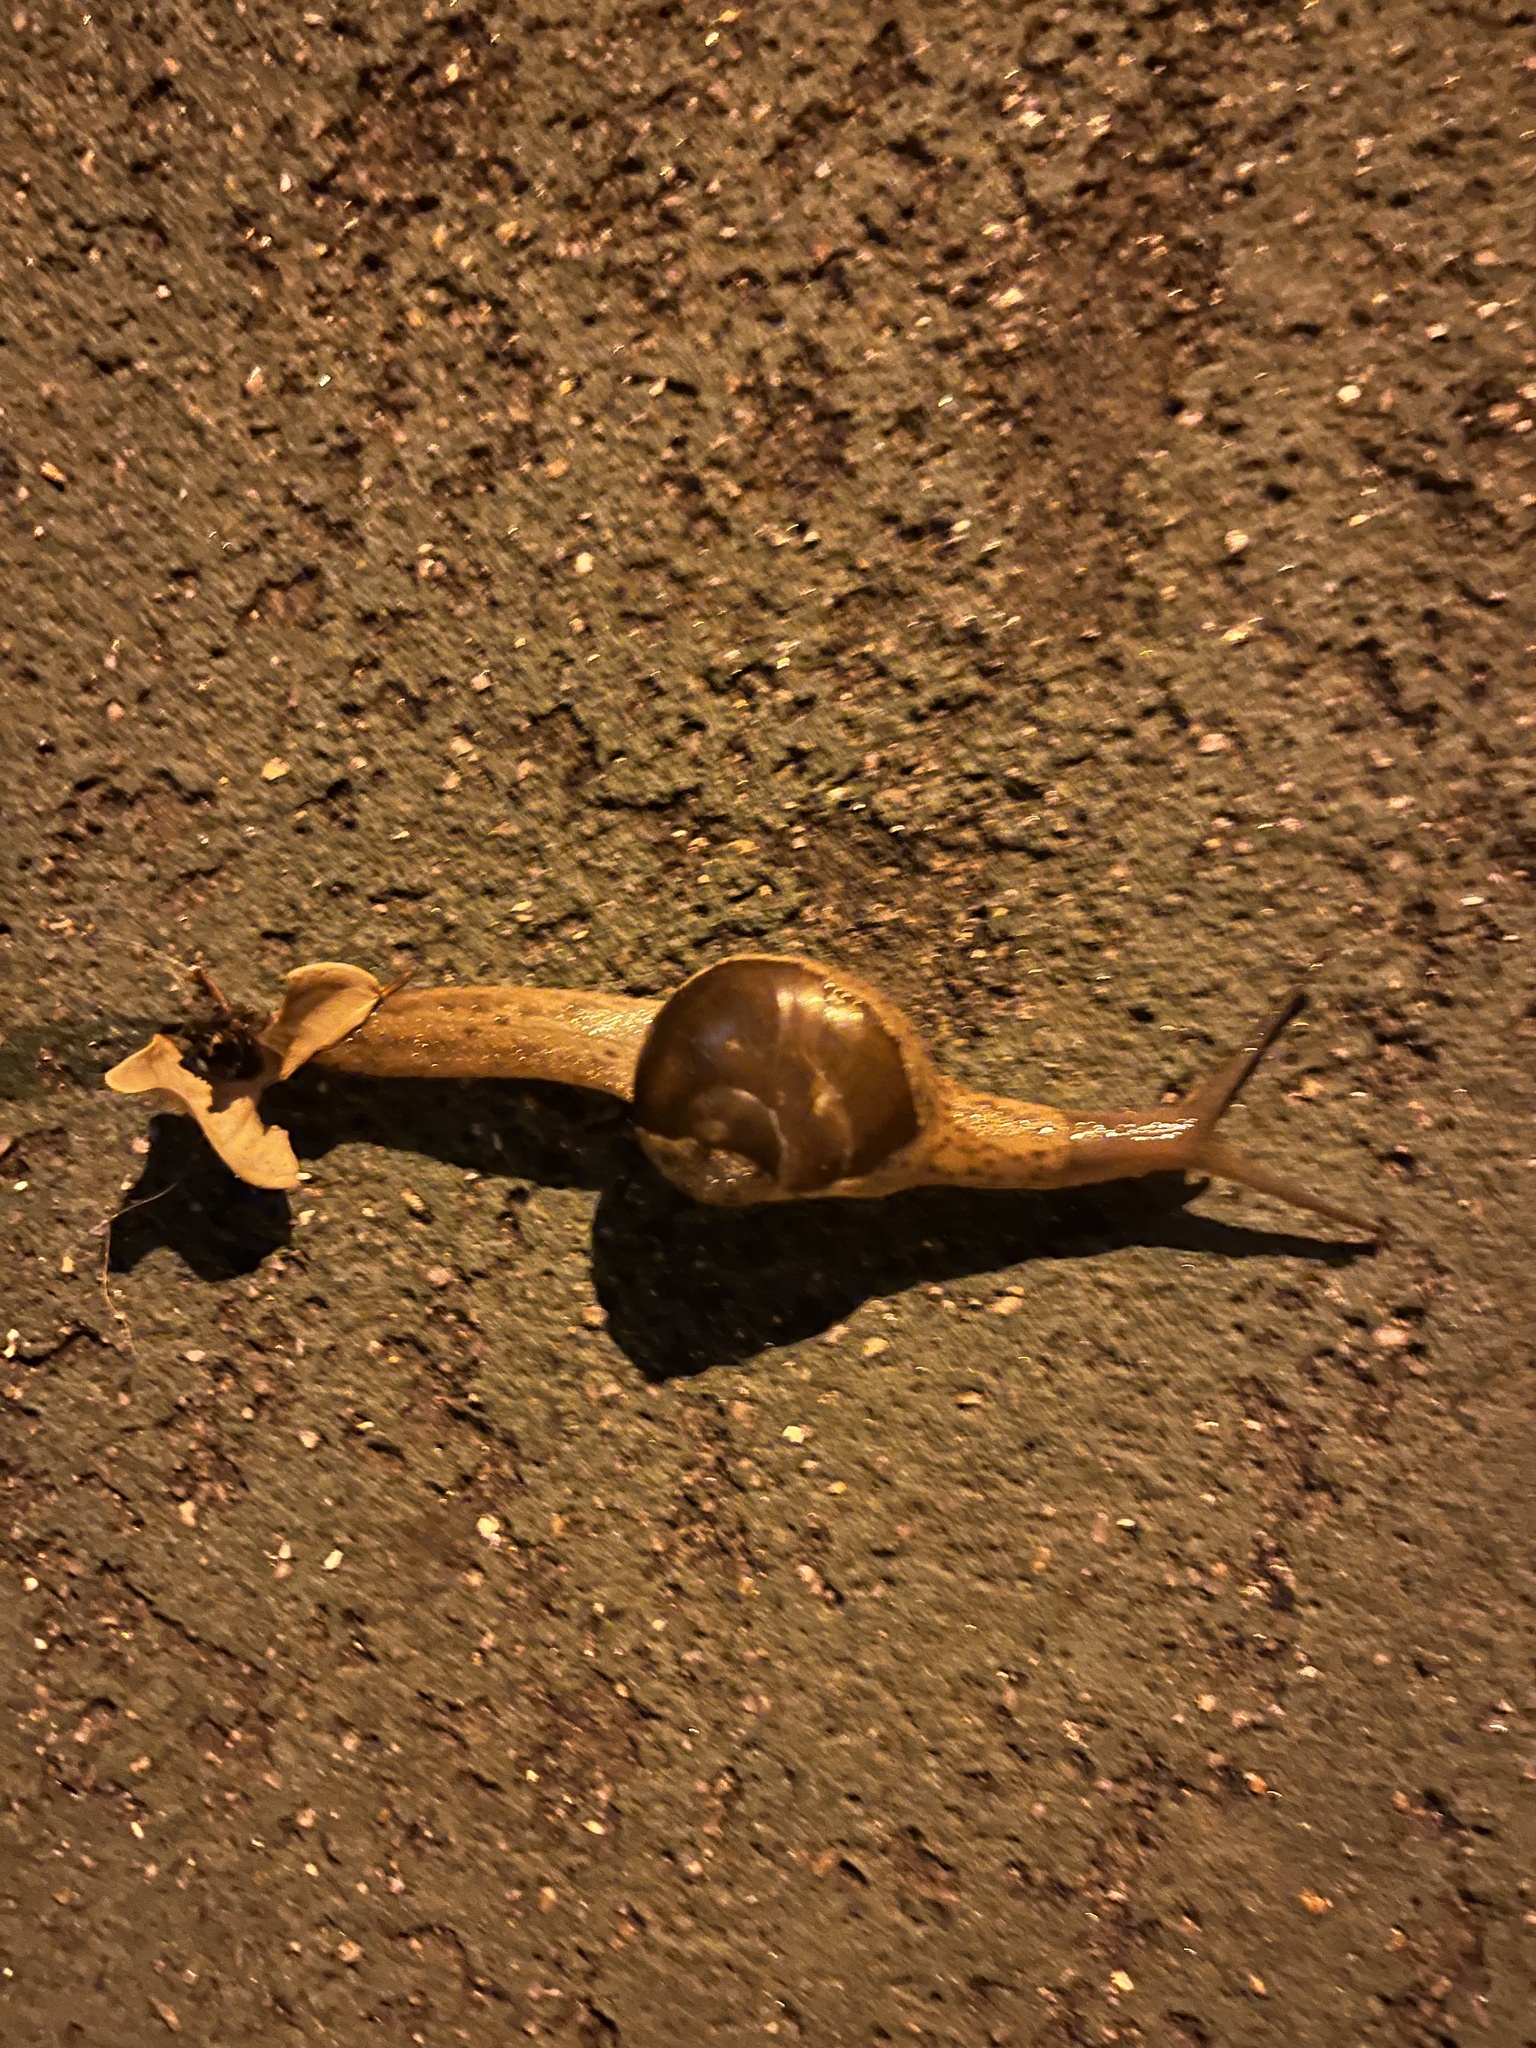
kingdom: Animalia
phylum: Mollusca
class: Gastropoda
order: Stylommatophora
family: Ariophantidae
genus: Megaustenia
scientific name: Megaustenia imperator
